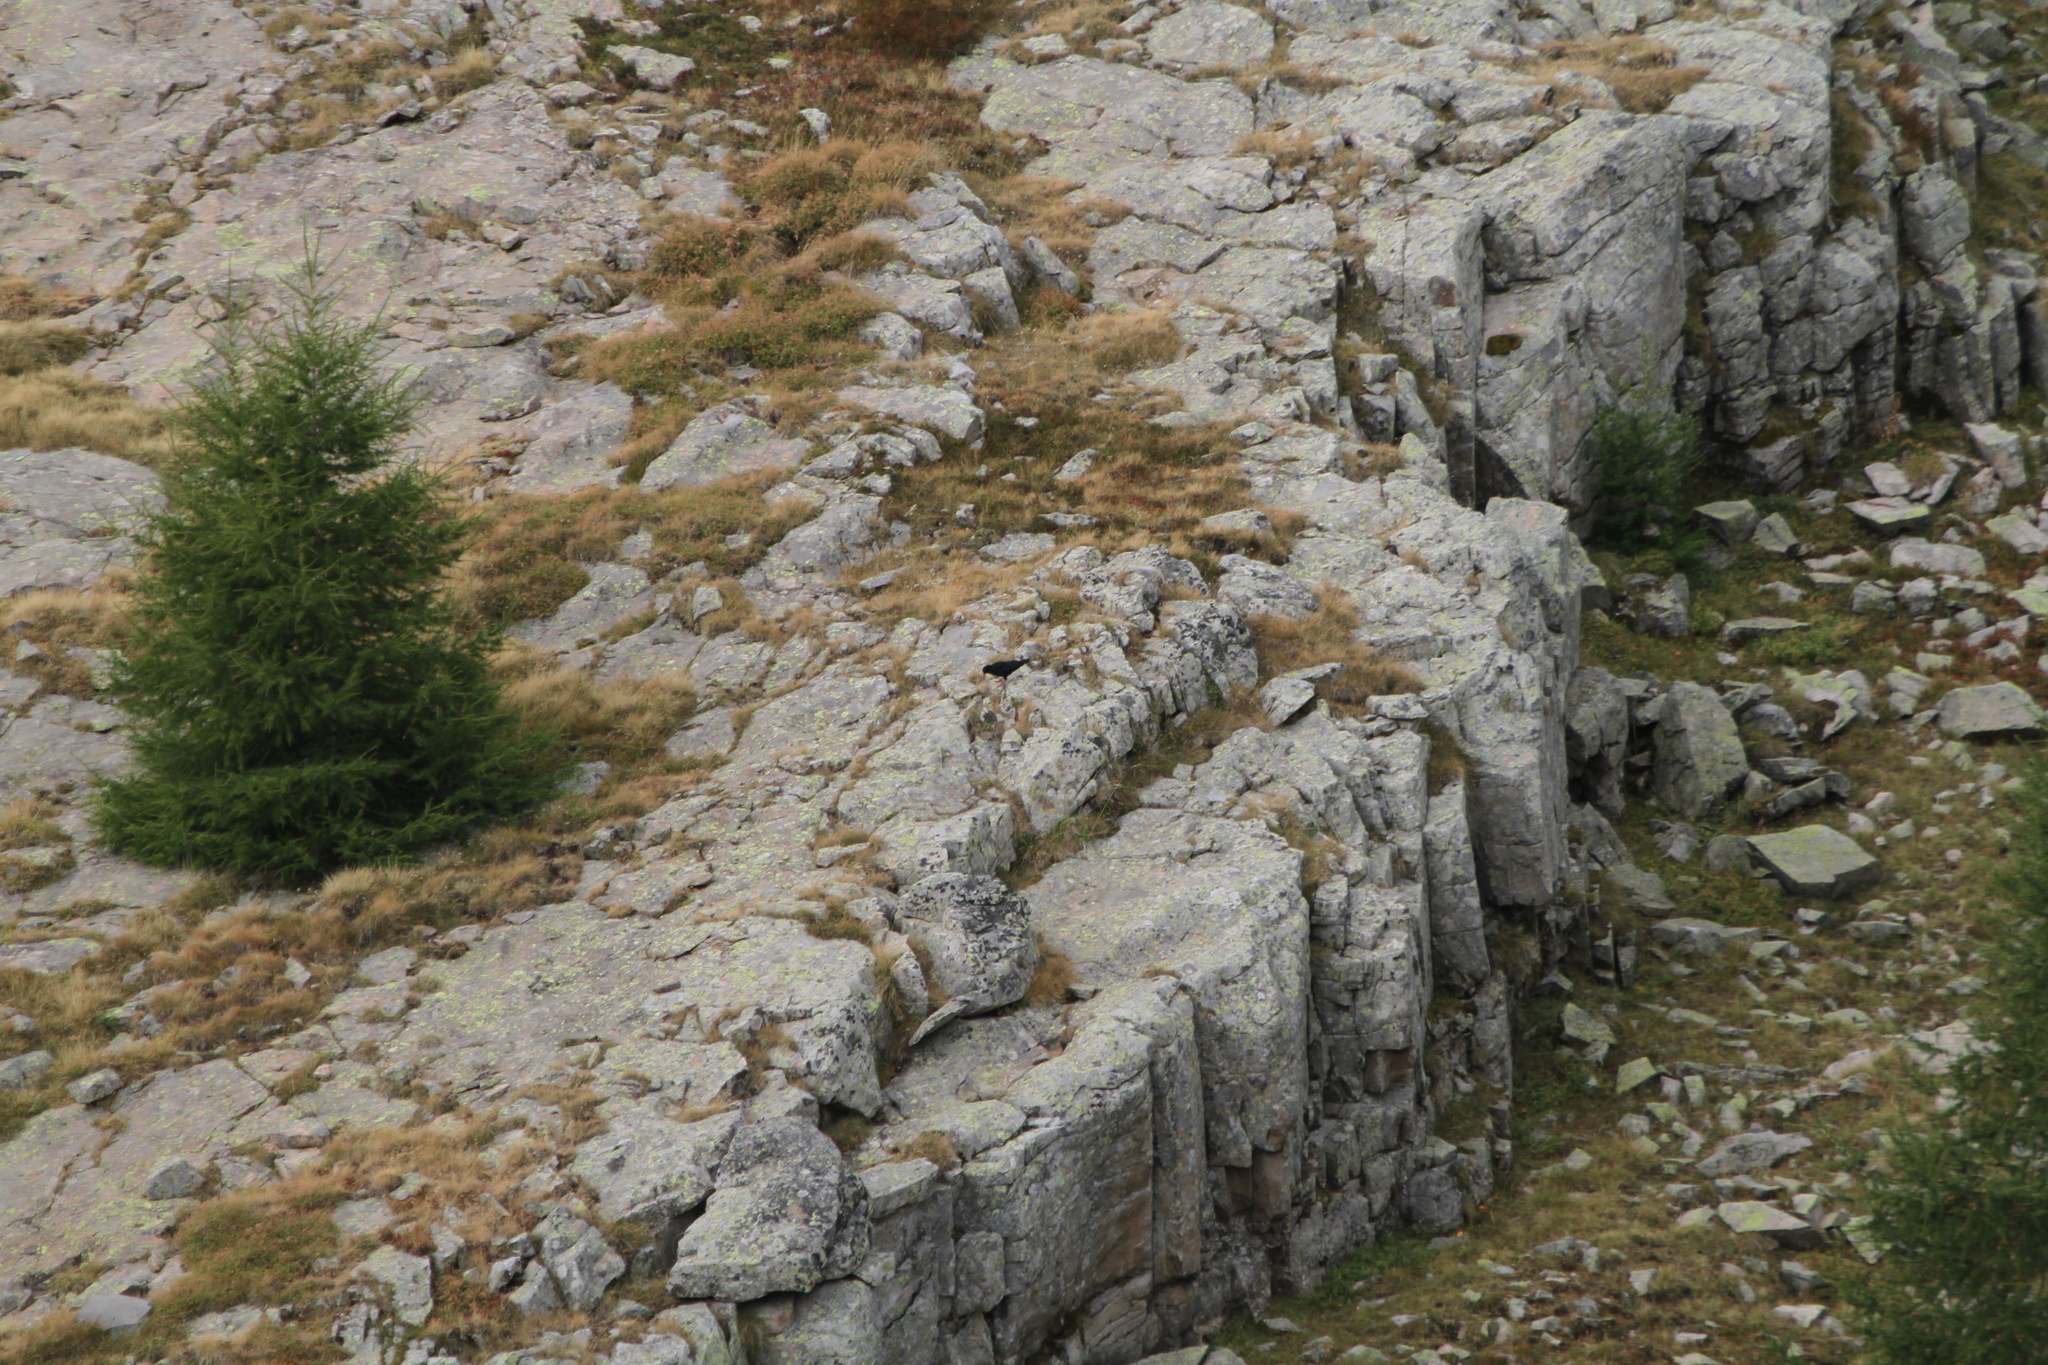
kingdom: Animalia
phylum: Chordata
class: Aves
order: Passeriformes
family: Corvidae
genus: Pyrrhocorax
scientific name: Pyrrhocorax pyrrhocorax
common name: Red-billed chough
